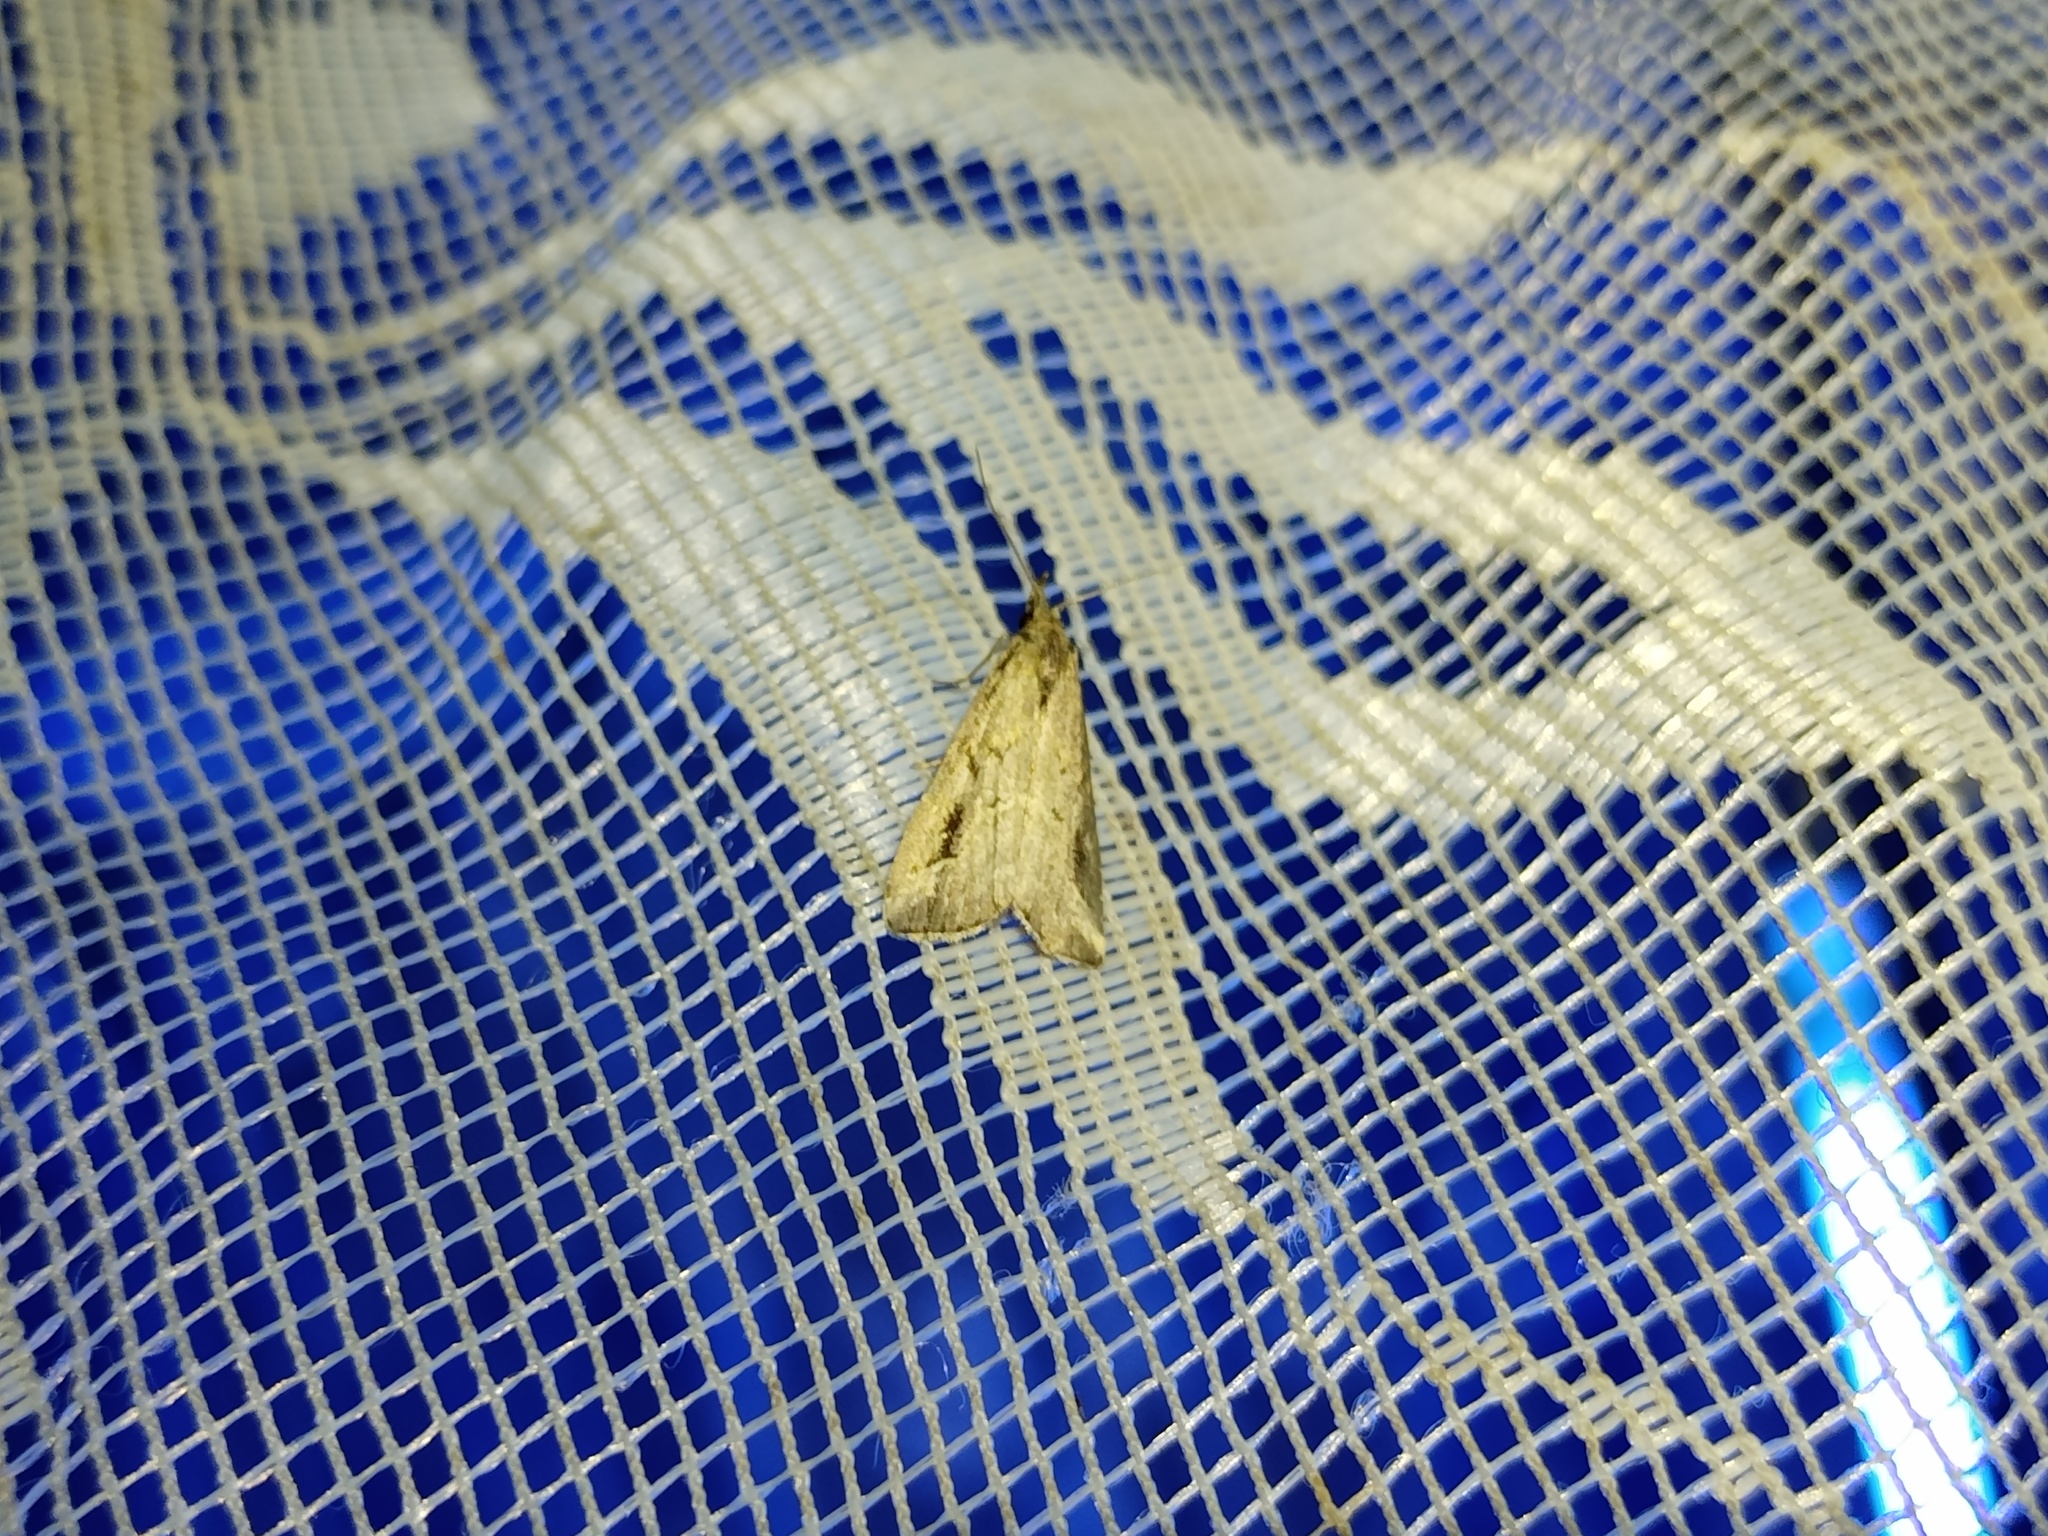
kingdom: Animalia
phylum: Arthropoda
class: Insecta
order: Lepidoptera
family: Erebidae
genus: Schrankia
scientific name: Schrankia costaestrigalis
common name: Pinion-streaked snout
